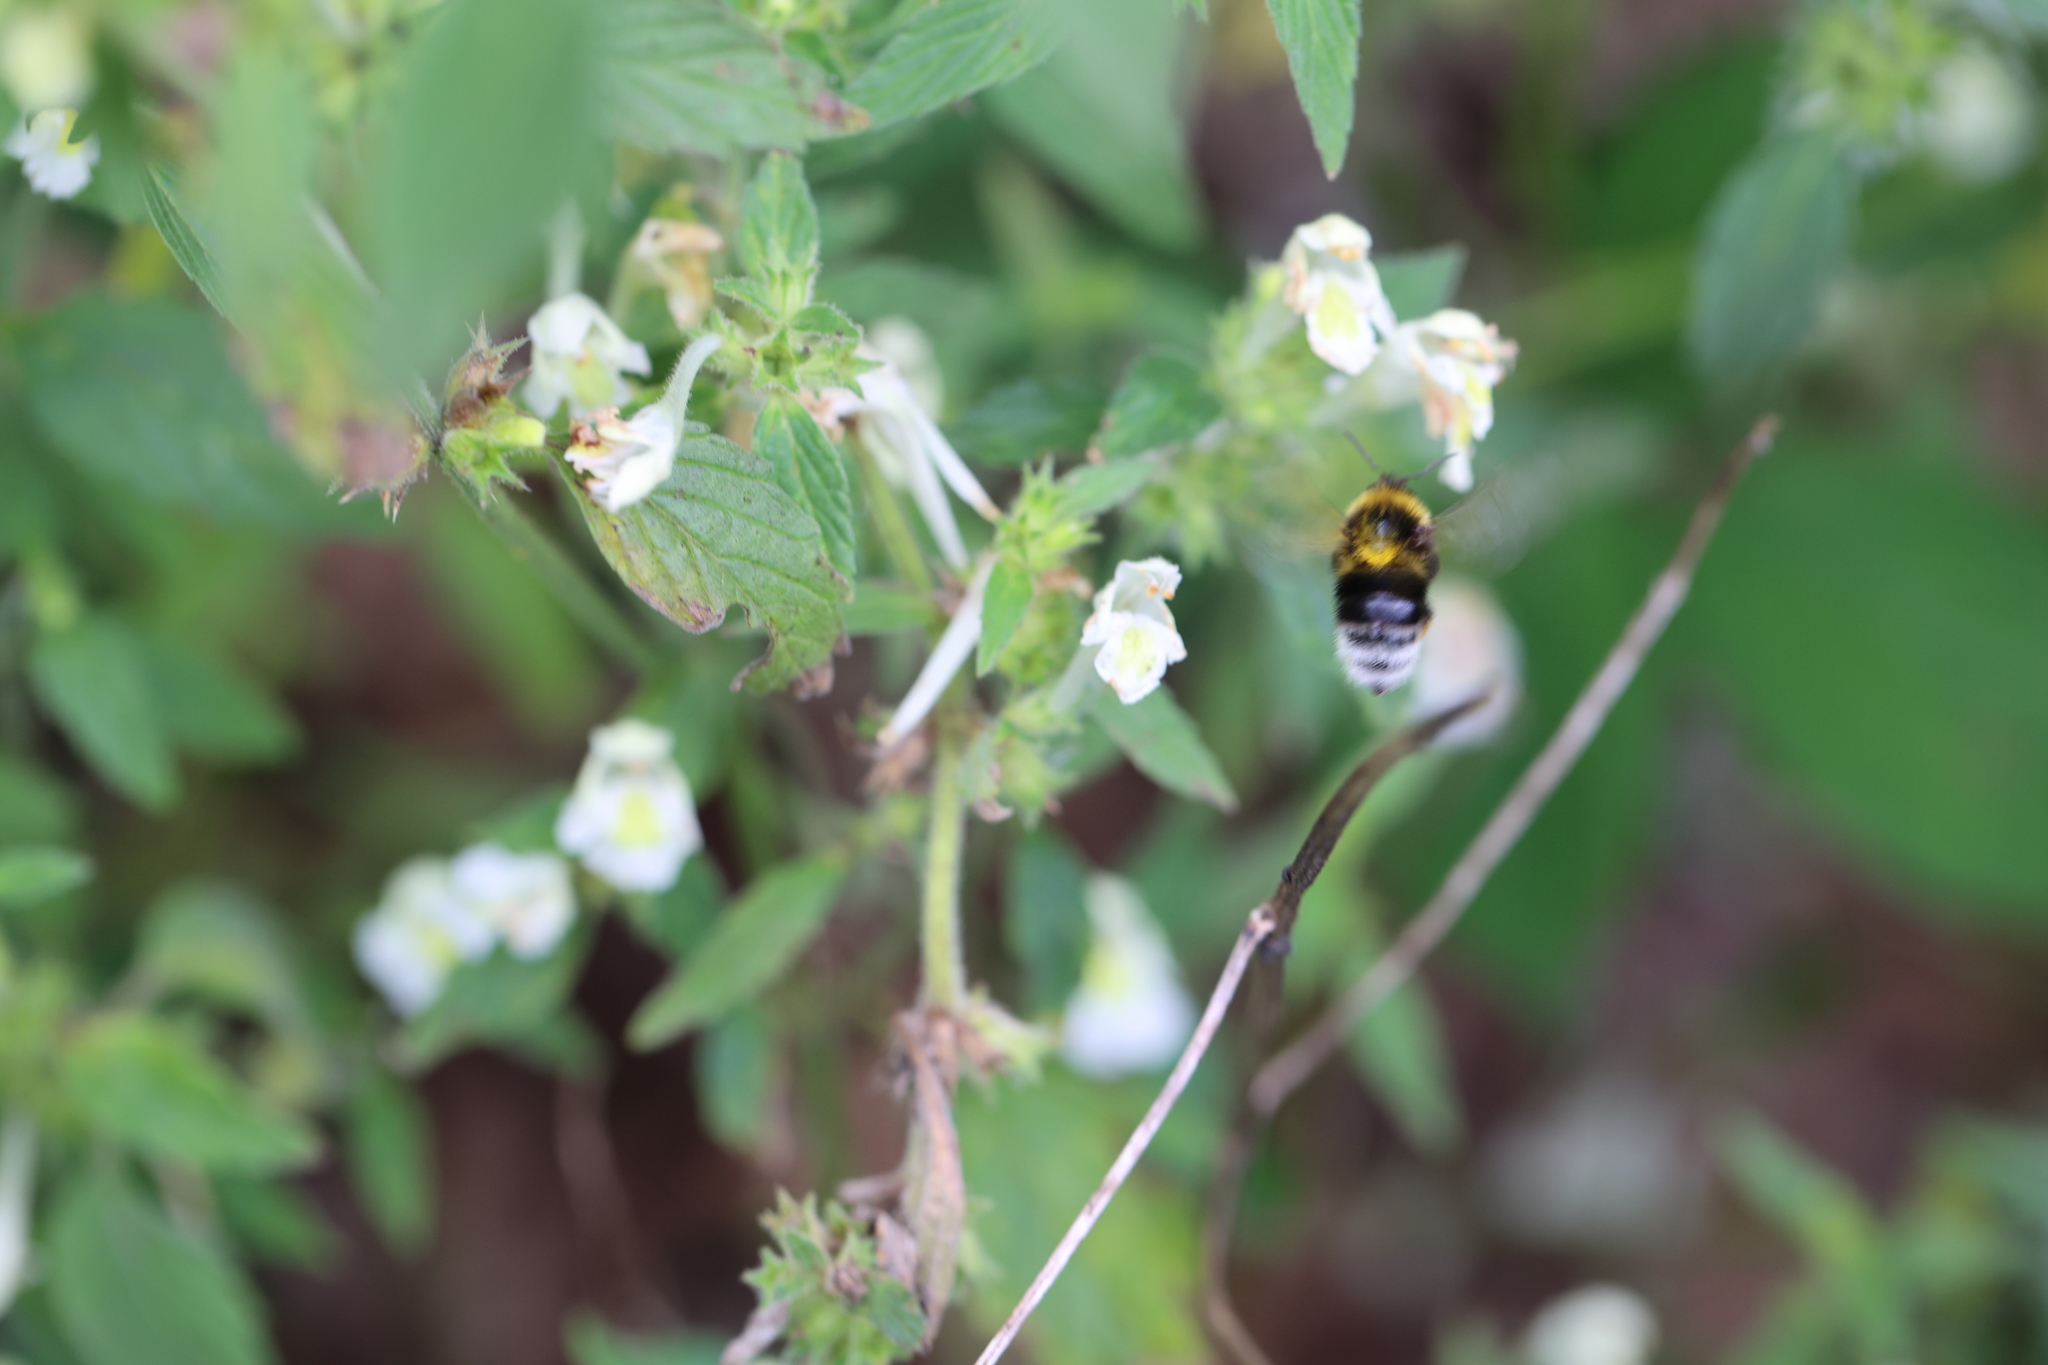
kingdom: Animalia
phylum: Arthropoda
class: Insecta
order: Hymenoptera
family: Apidae
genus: Bombus
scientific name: Bombus hortorum
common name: Garden bumblebee
